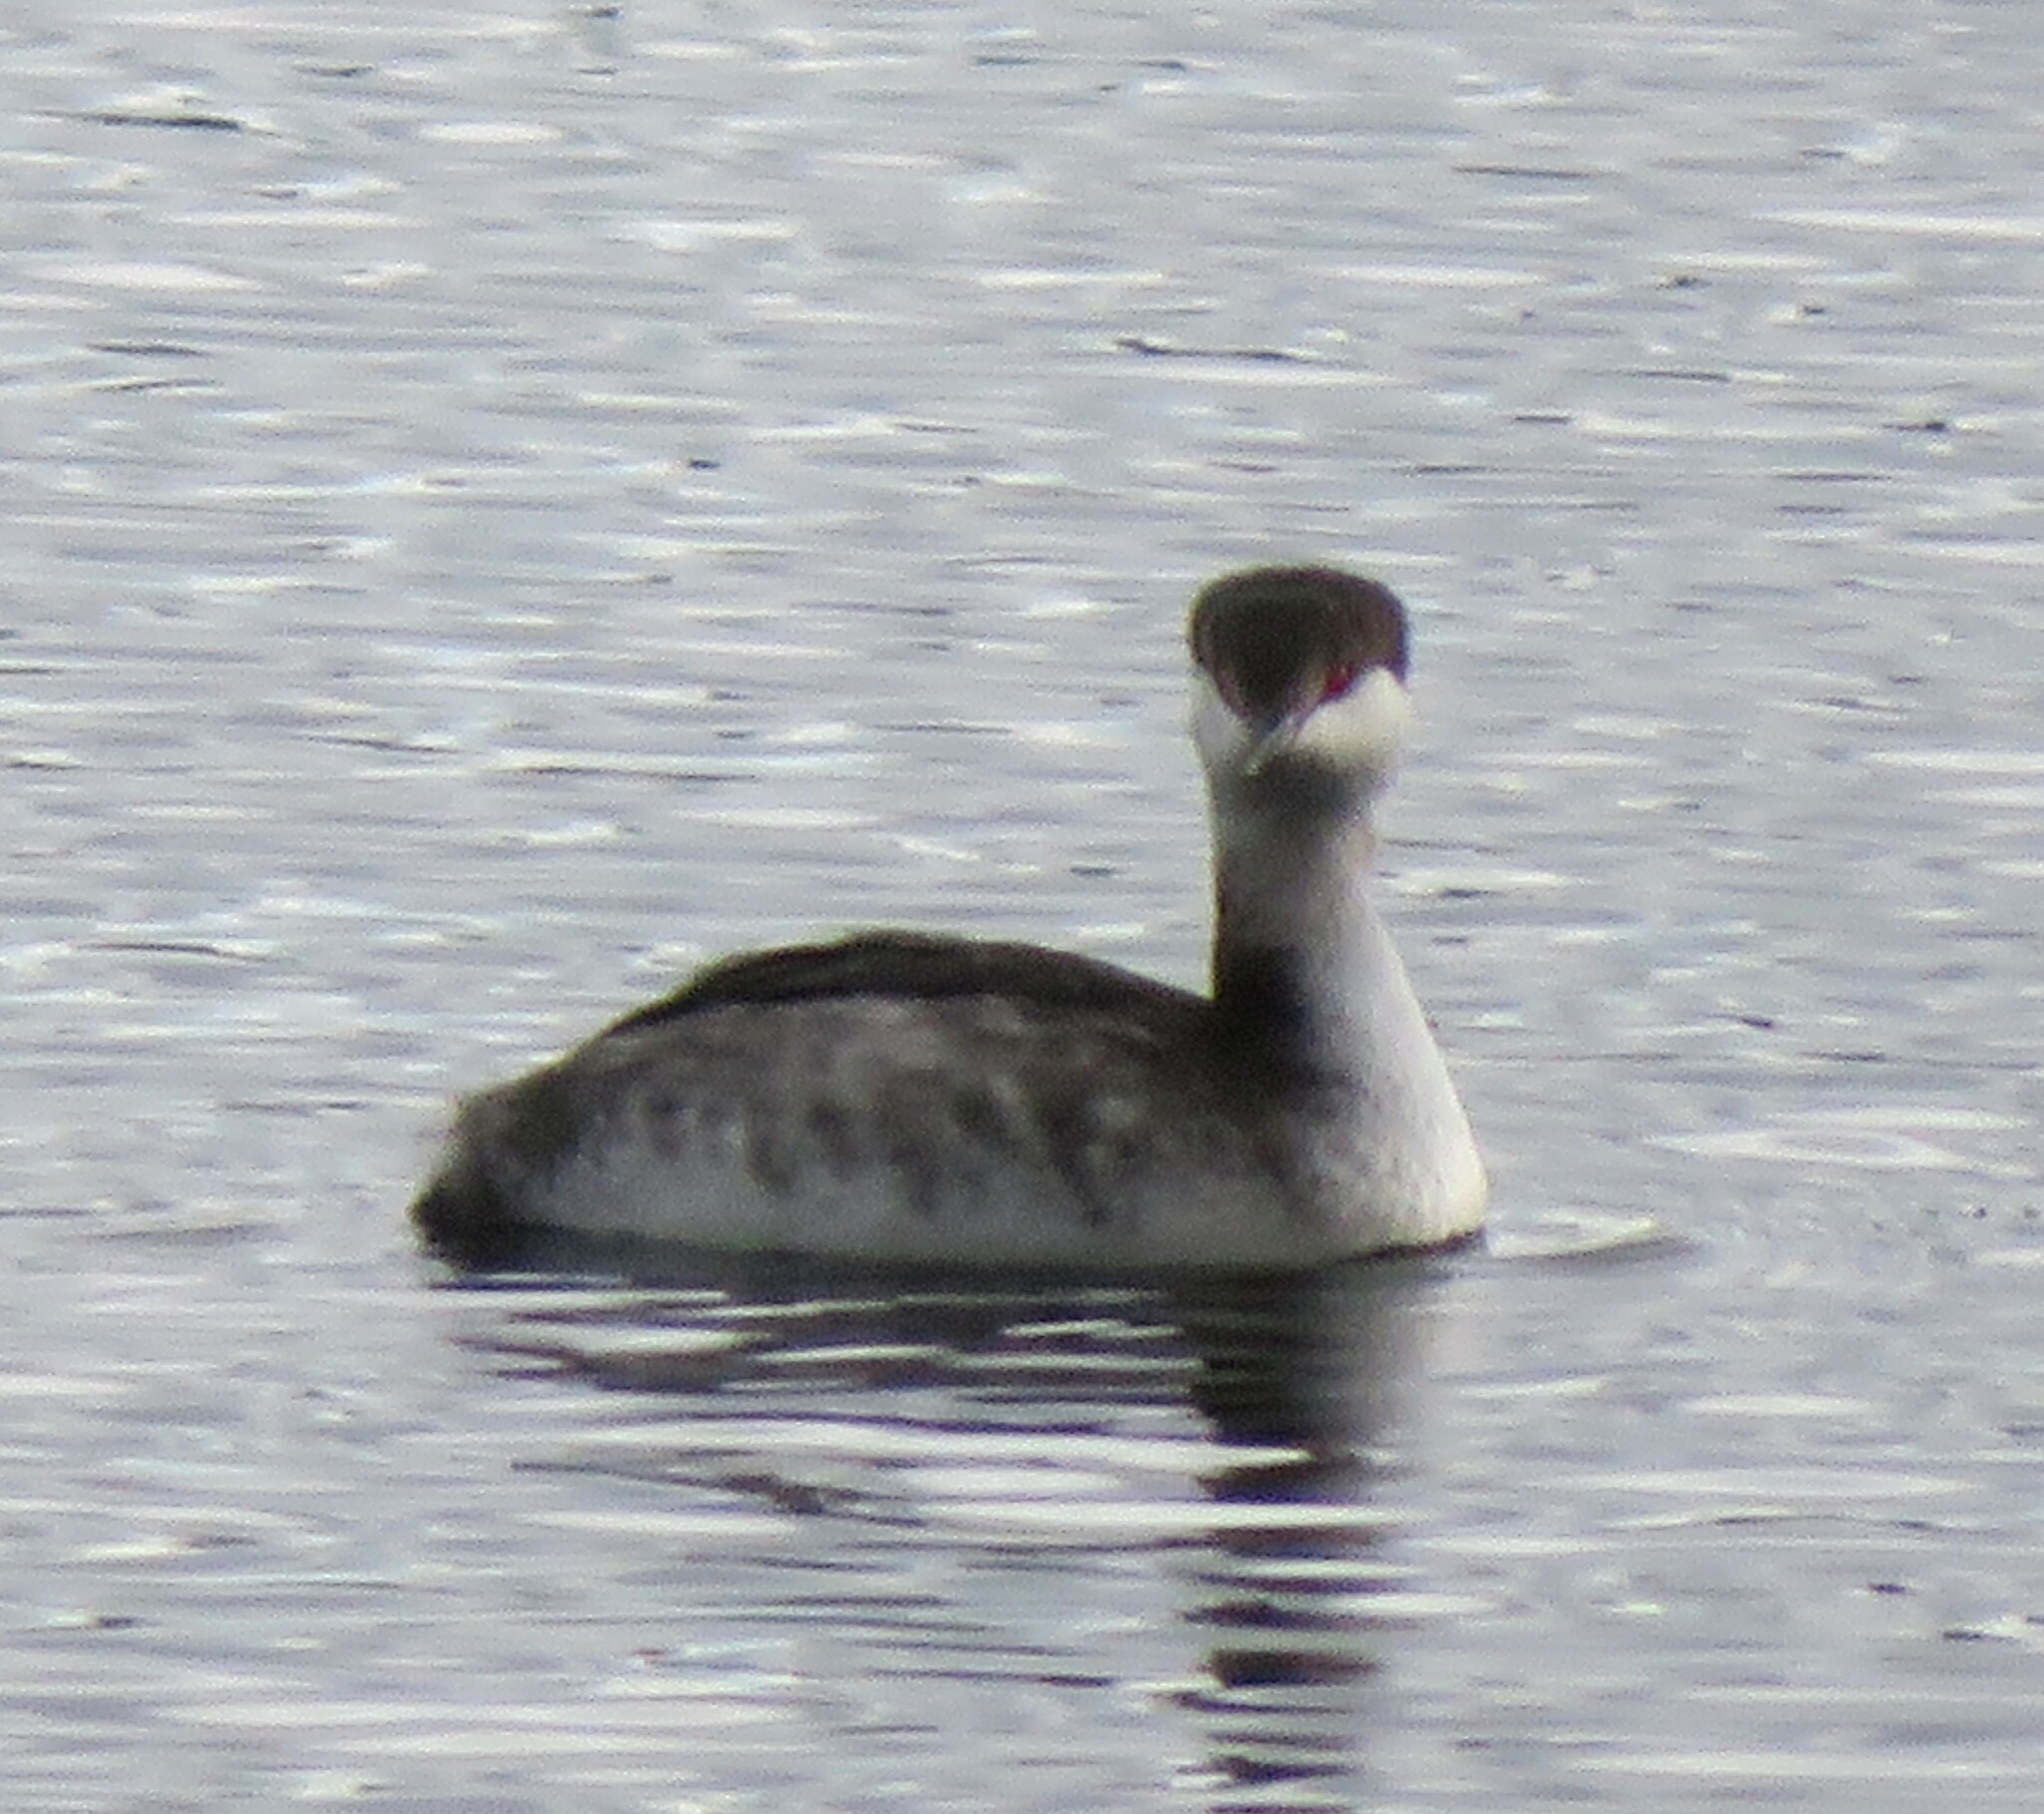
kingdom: Animalia
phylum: Chordata
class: Aves
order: Podicipediformes
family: Podicipedidae
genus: Podiceps
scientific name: Podiceps auritus
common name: Horned grebe
